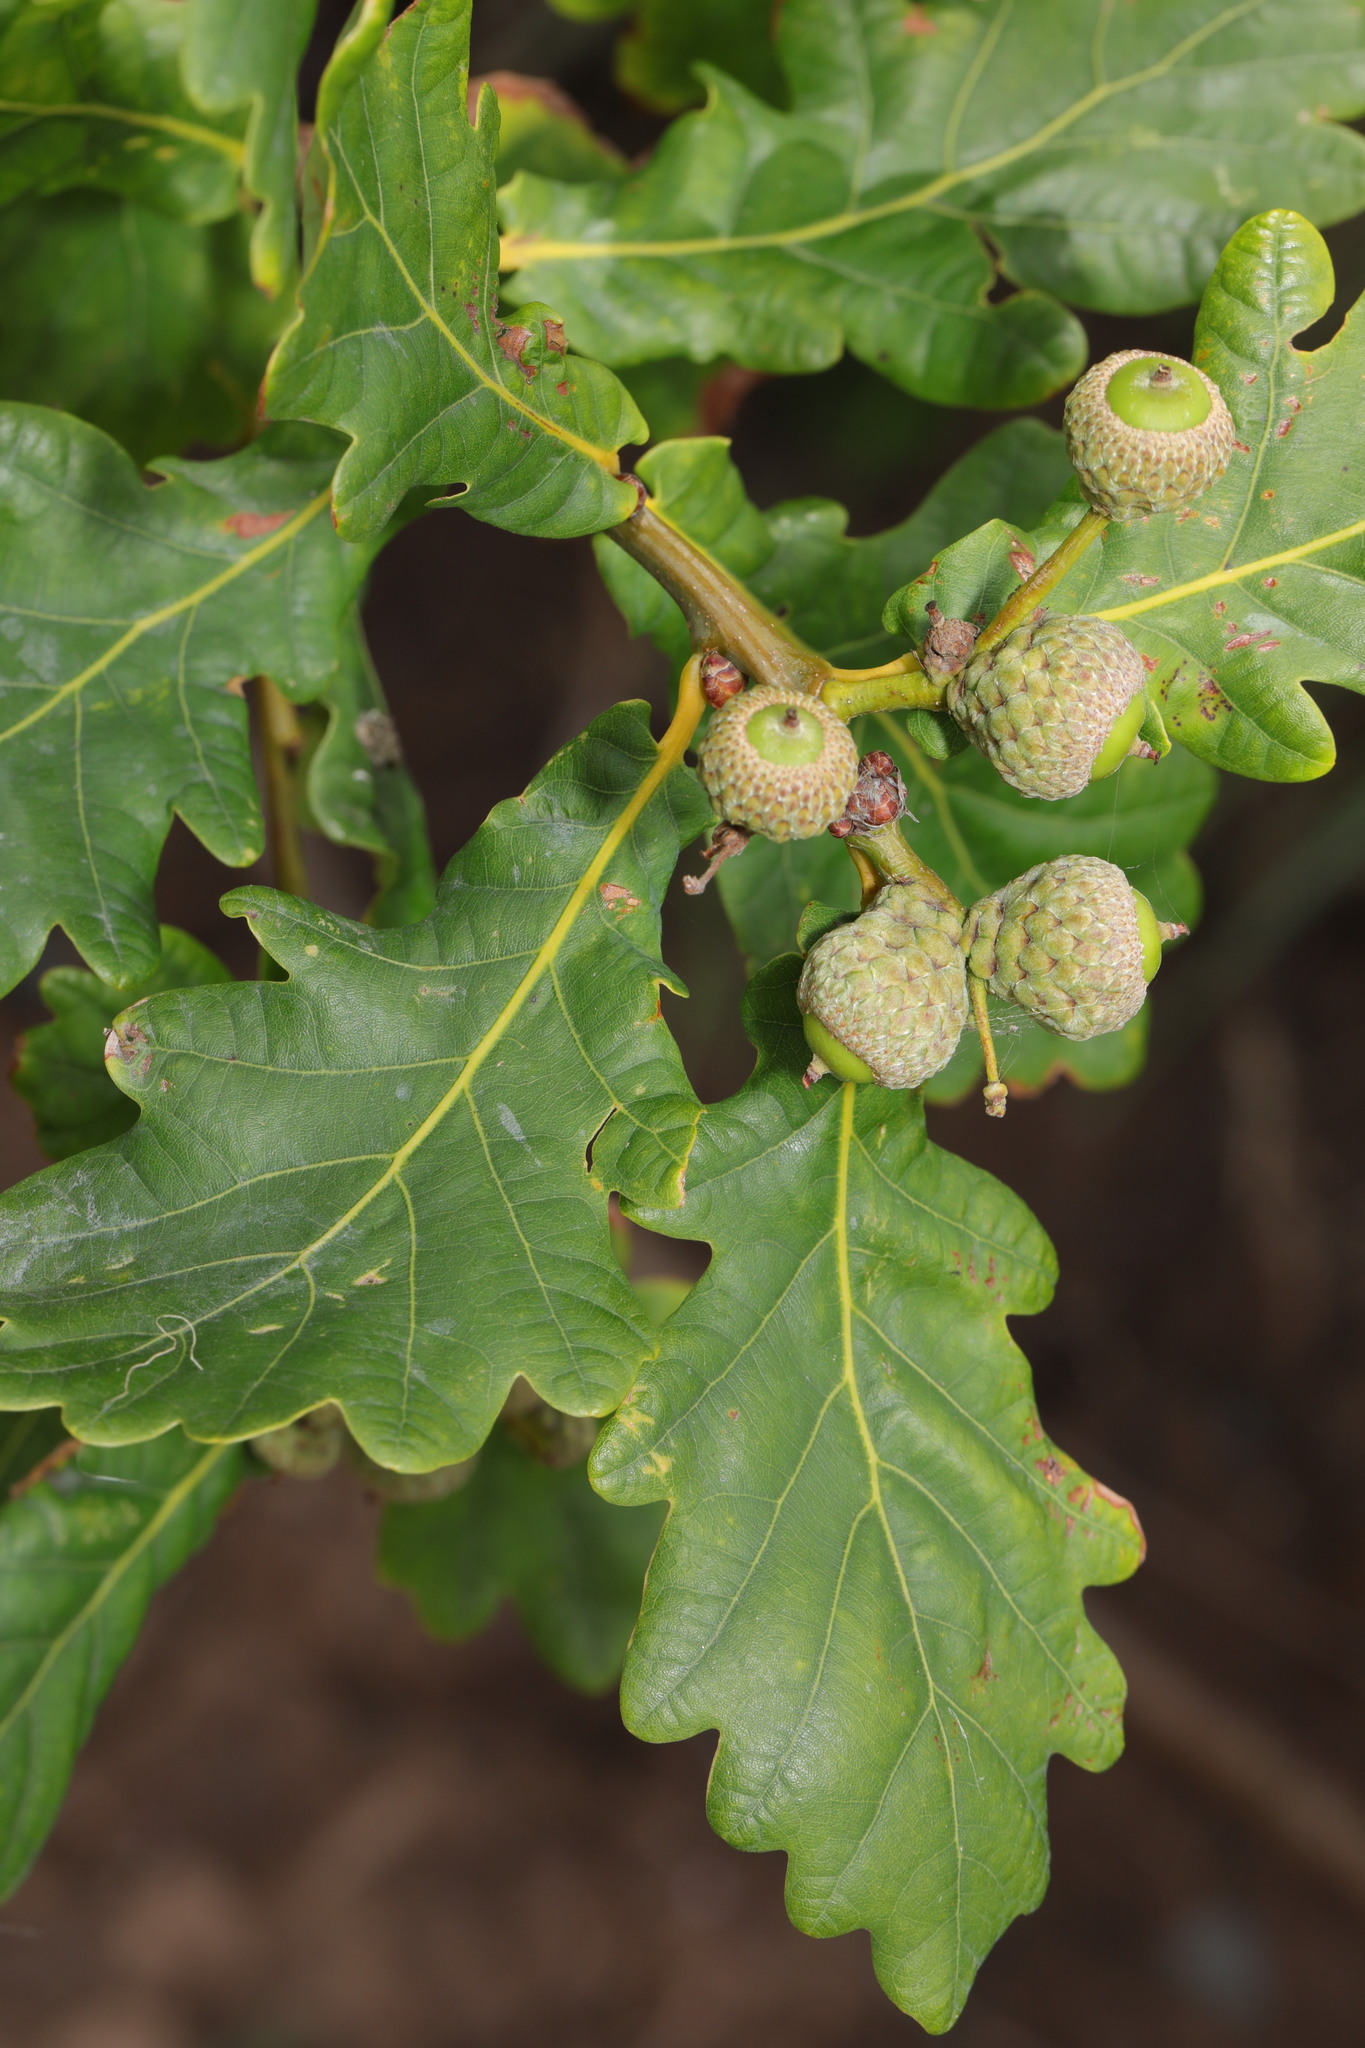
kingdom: Plantae
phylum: Tracheophyta
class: Magnoliopsida
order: Fagales
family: Fagaceae
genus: Quercus
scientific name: Quercus robur
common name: Pedunculate oak
